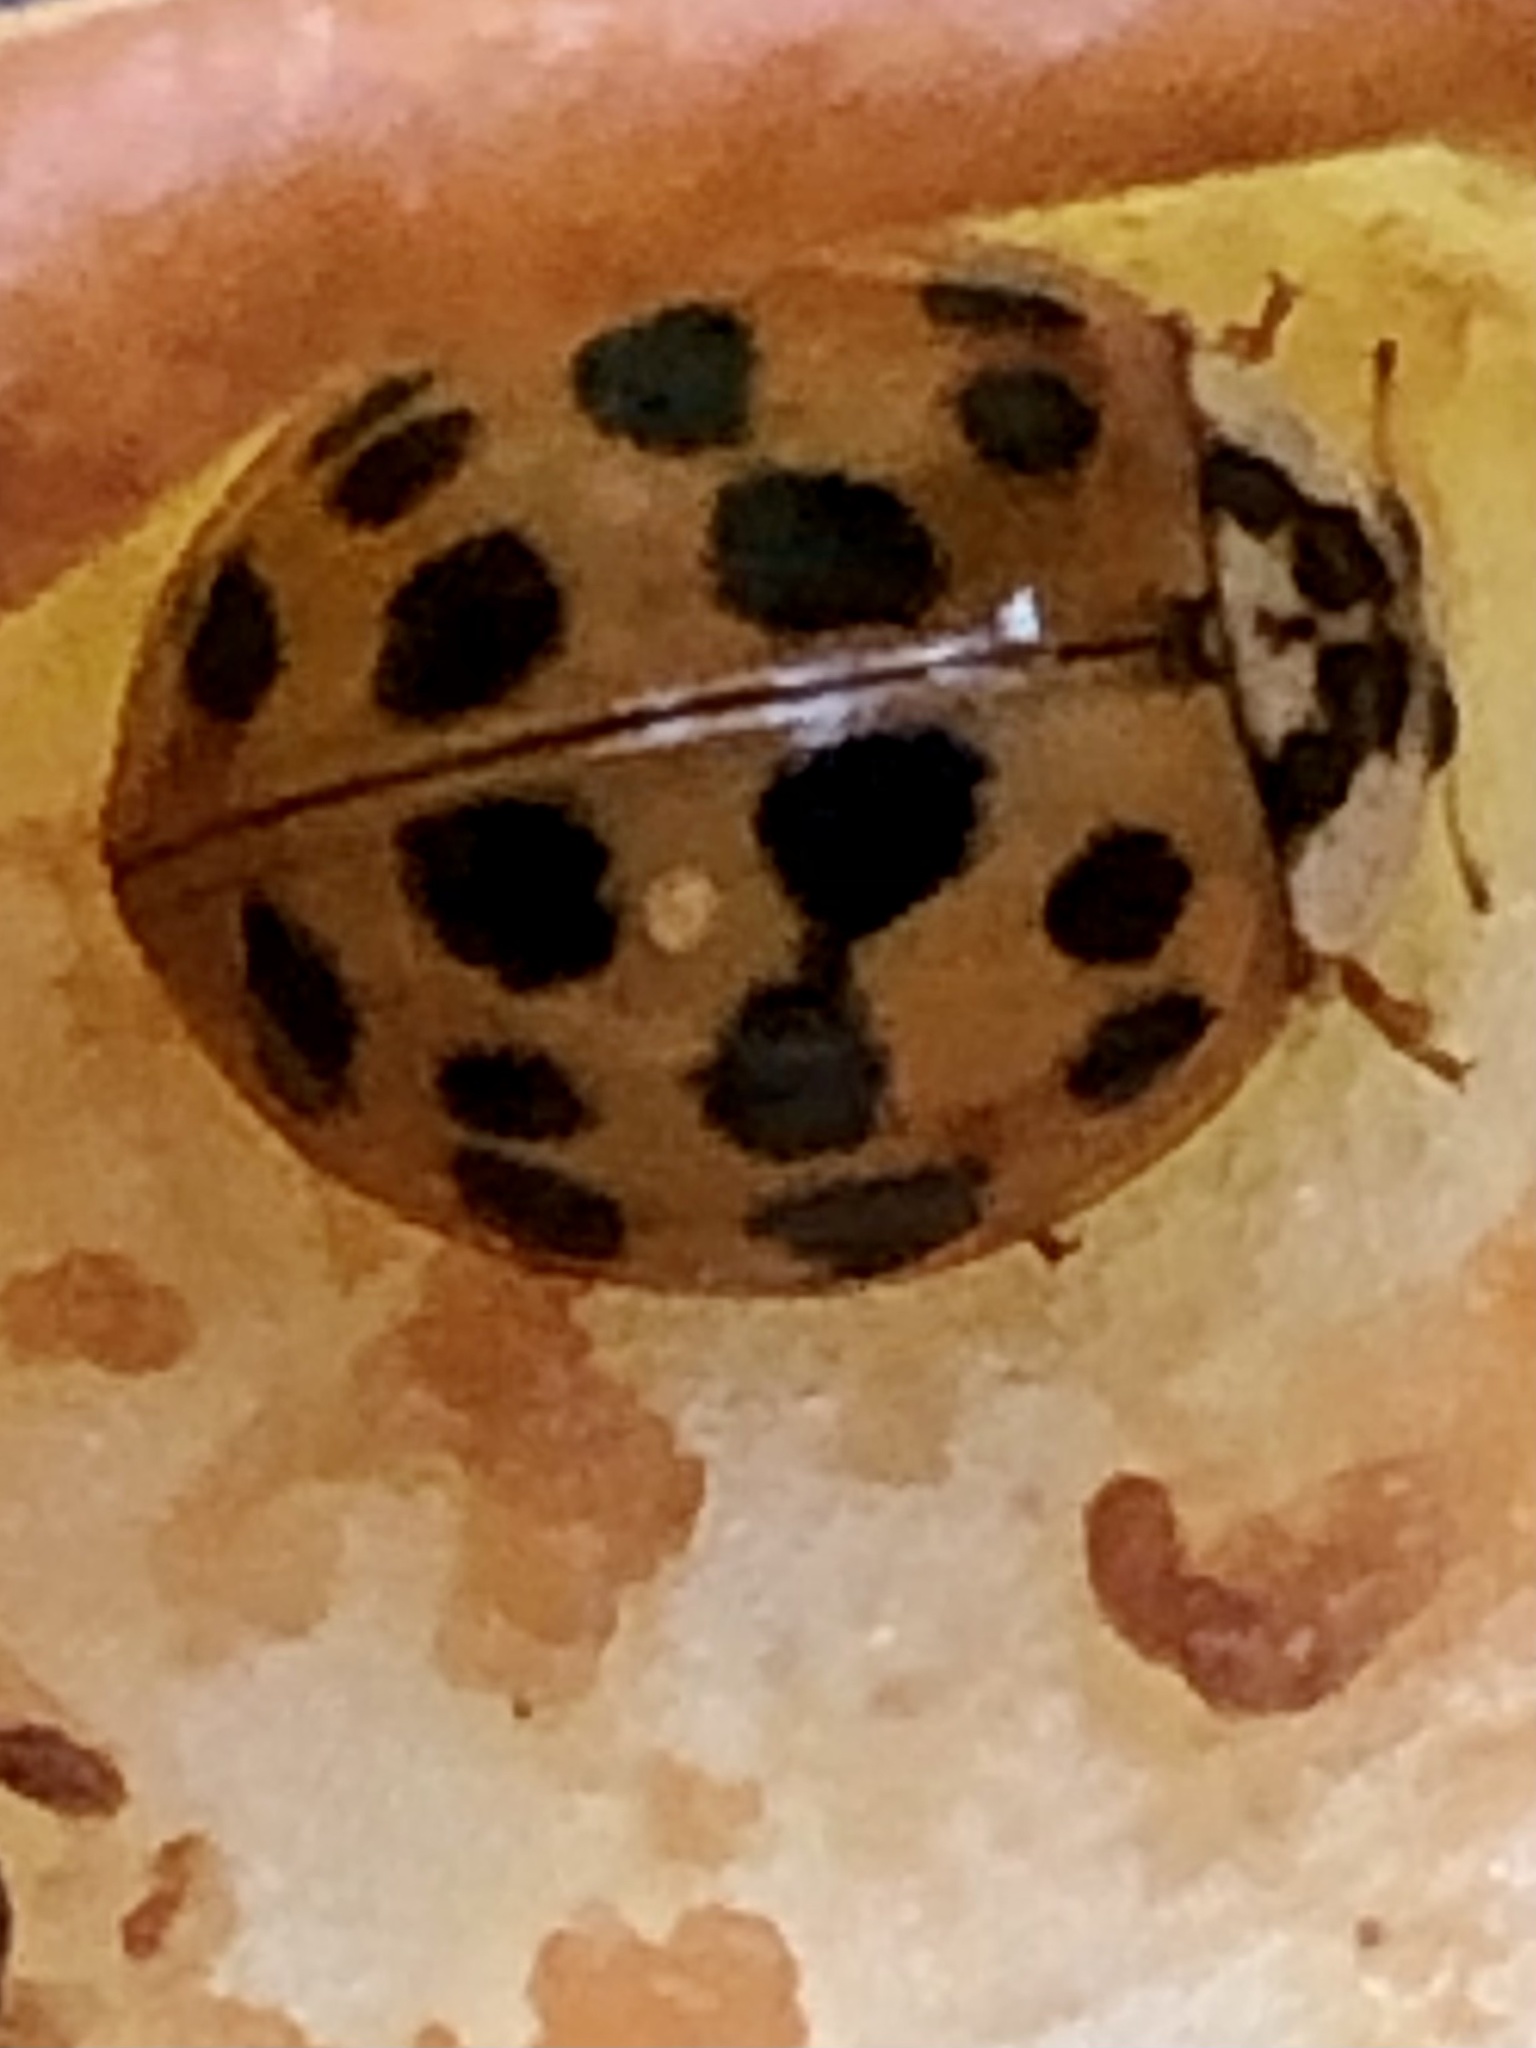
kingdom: Animalia
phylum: Arthropoda
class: Insecta
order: Coleoptera
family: Coccinellidae
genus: Harmonia
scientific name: Harmonia axyridis
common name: Harlequin ladybird
